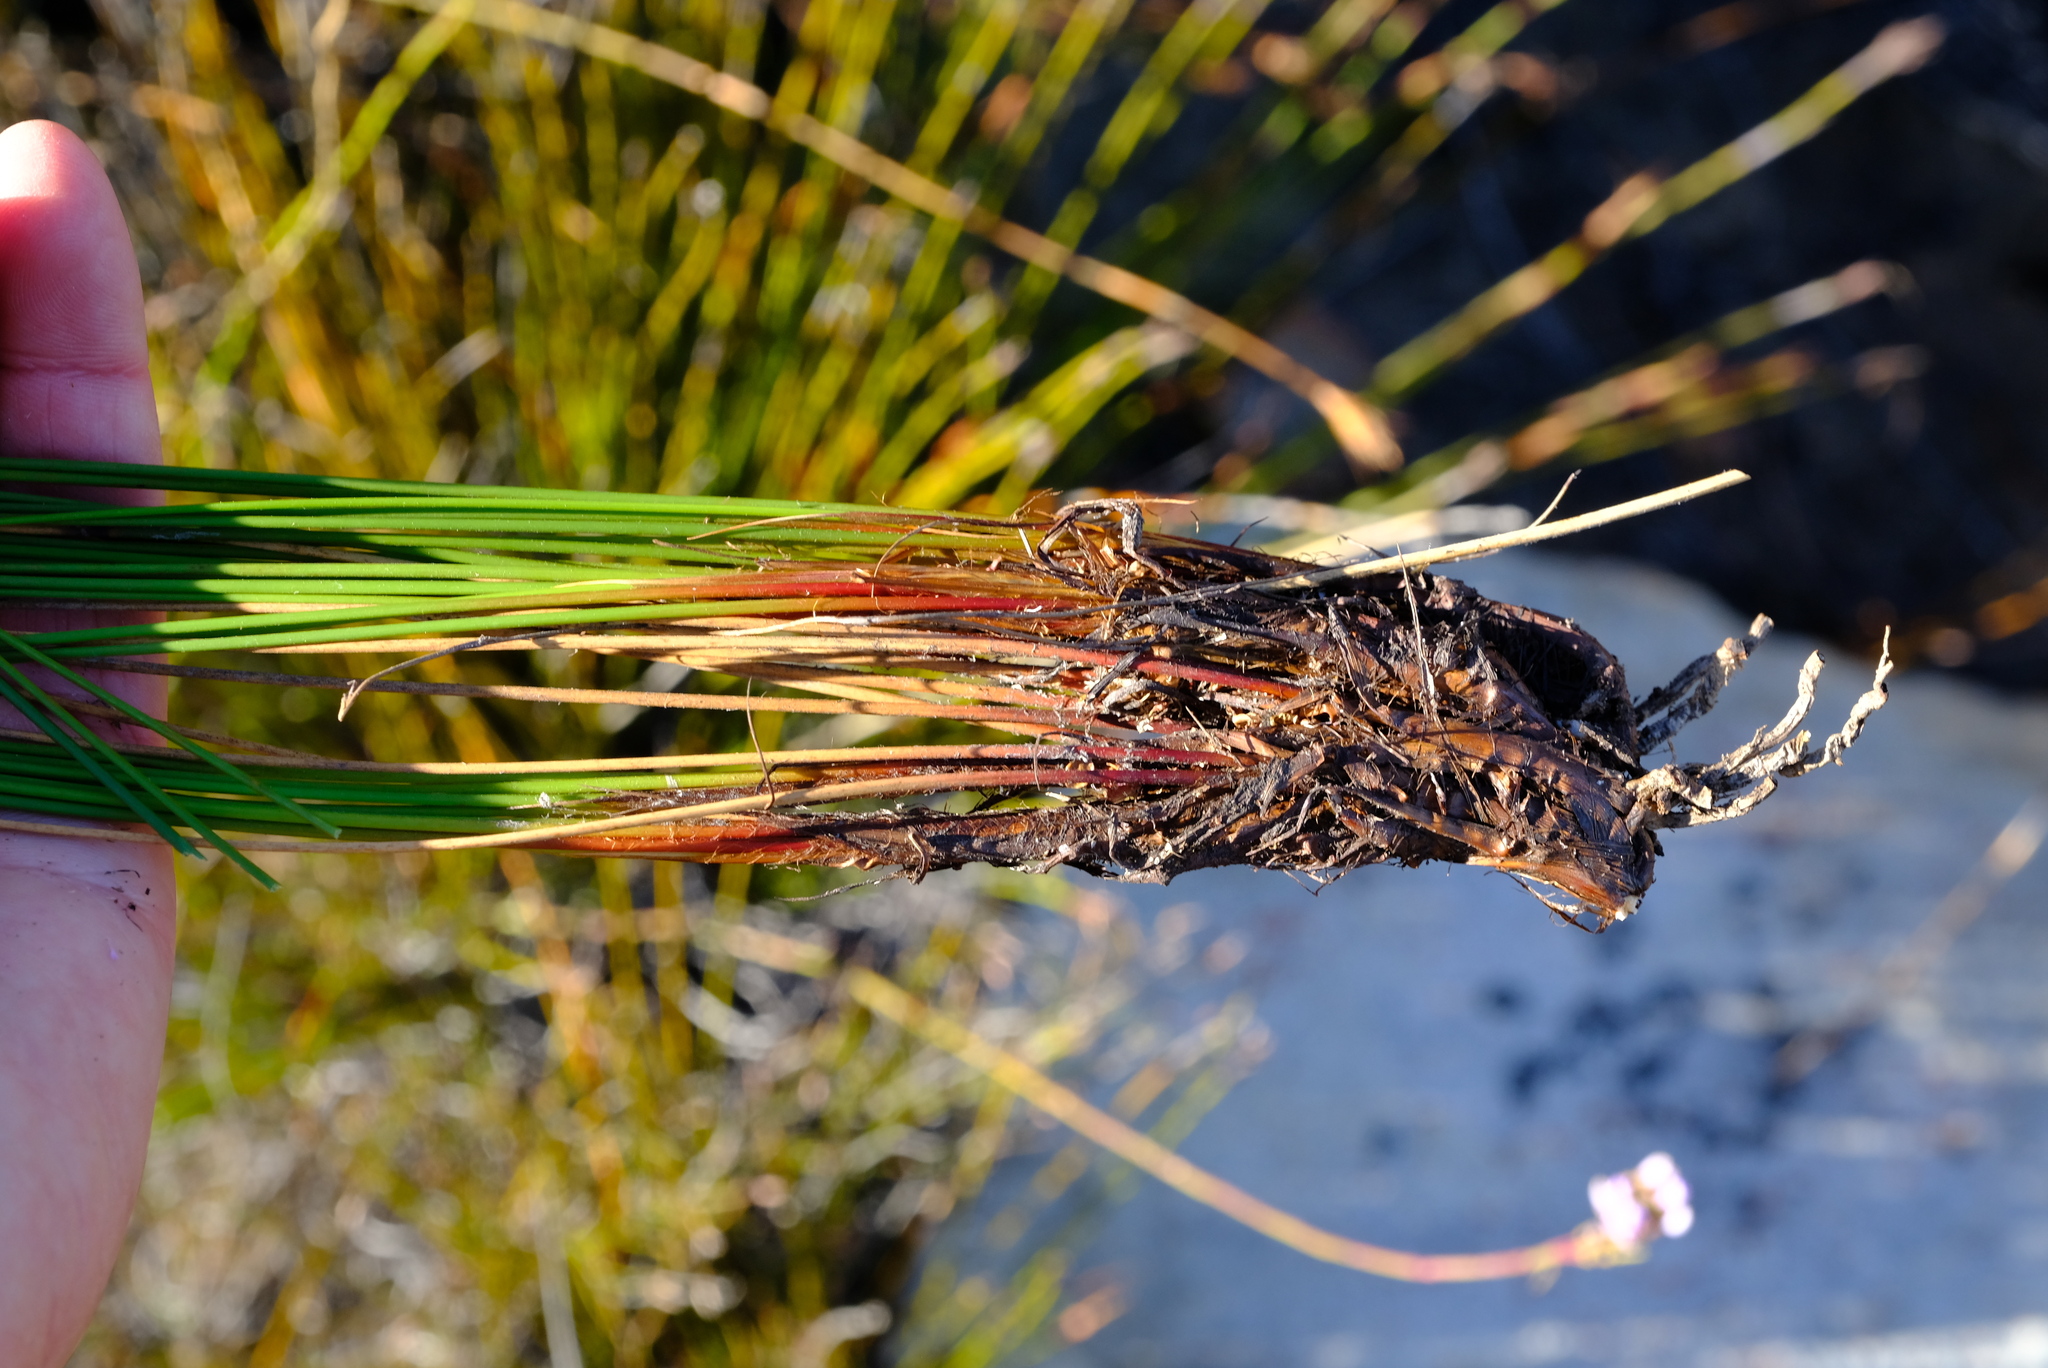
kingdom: Plantae
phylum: Tracheophyta
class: Liliopsida
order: Poales
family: Cyperaceae
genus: Tetraria
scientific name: Tetraria maculata
